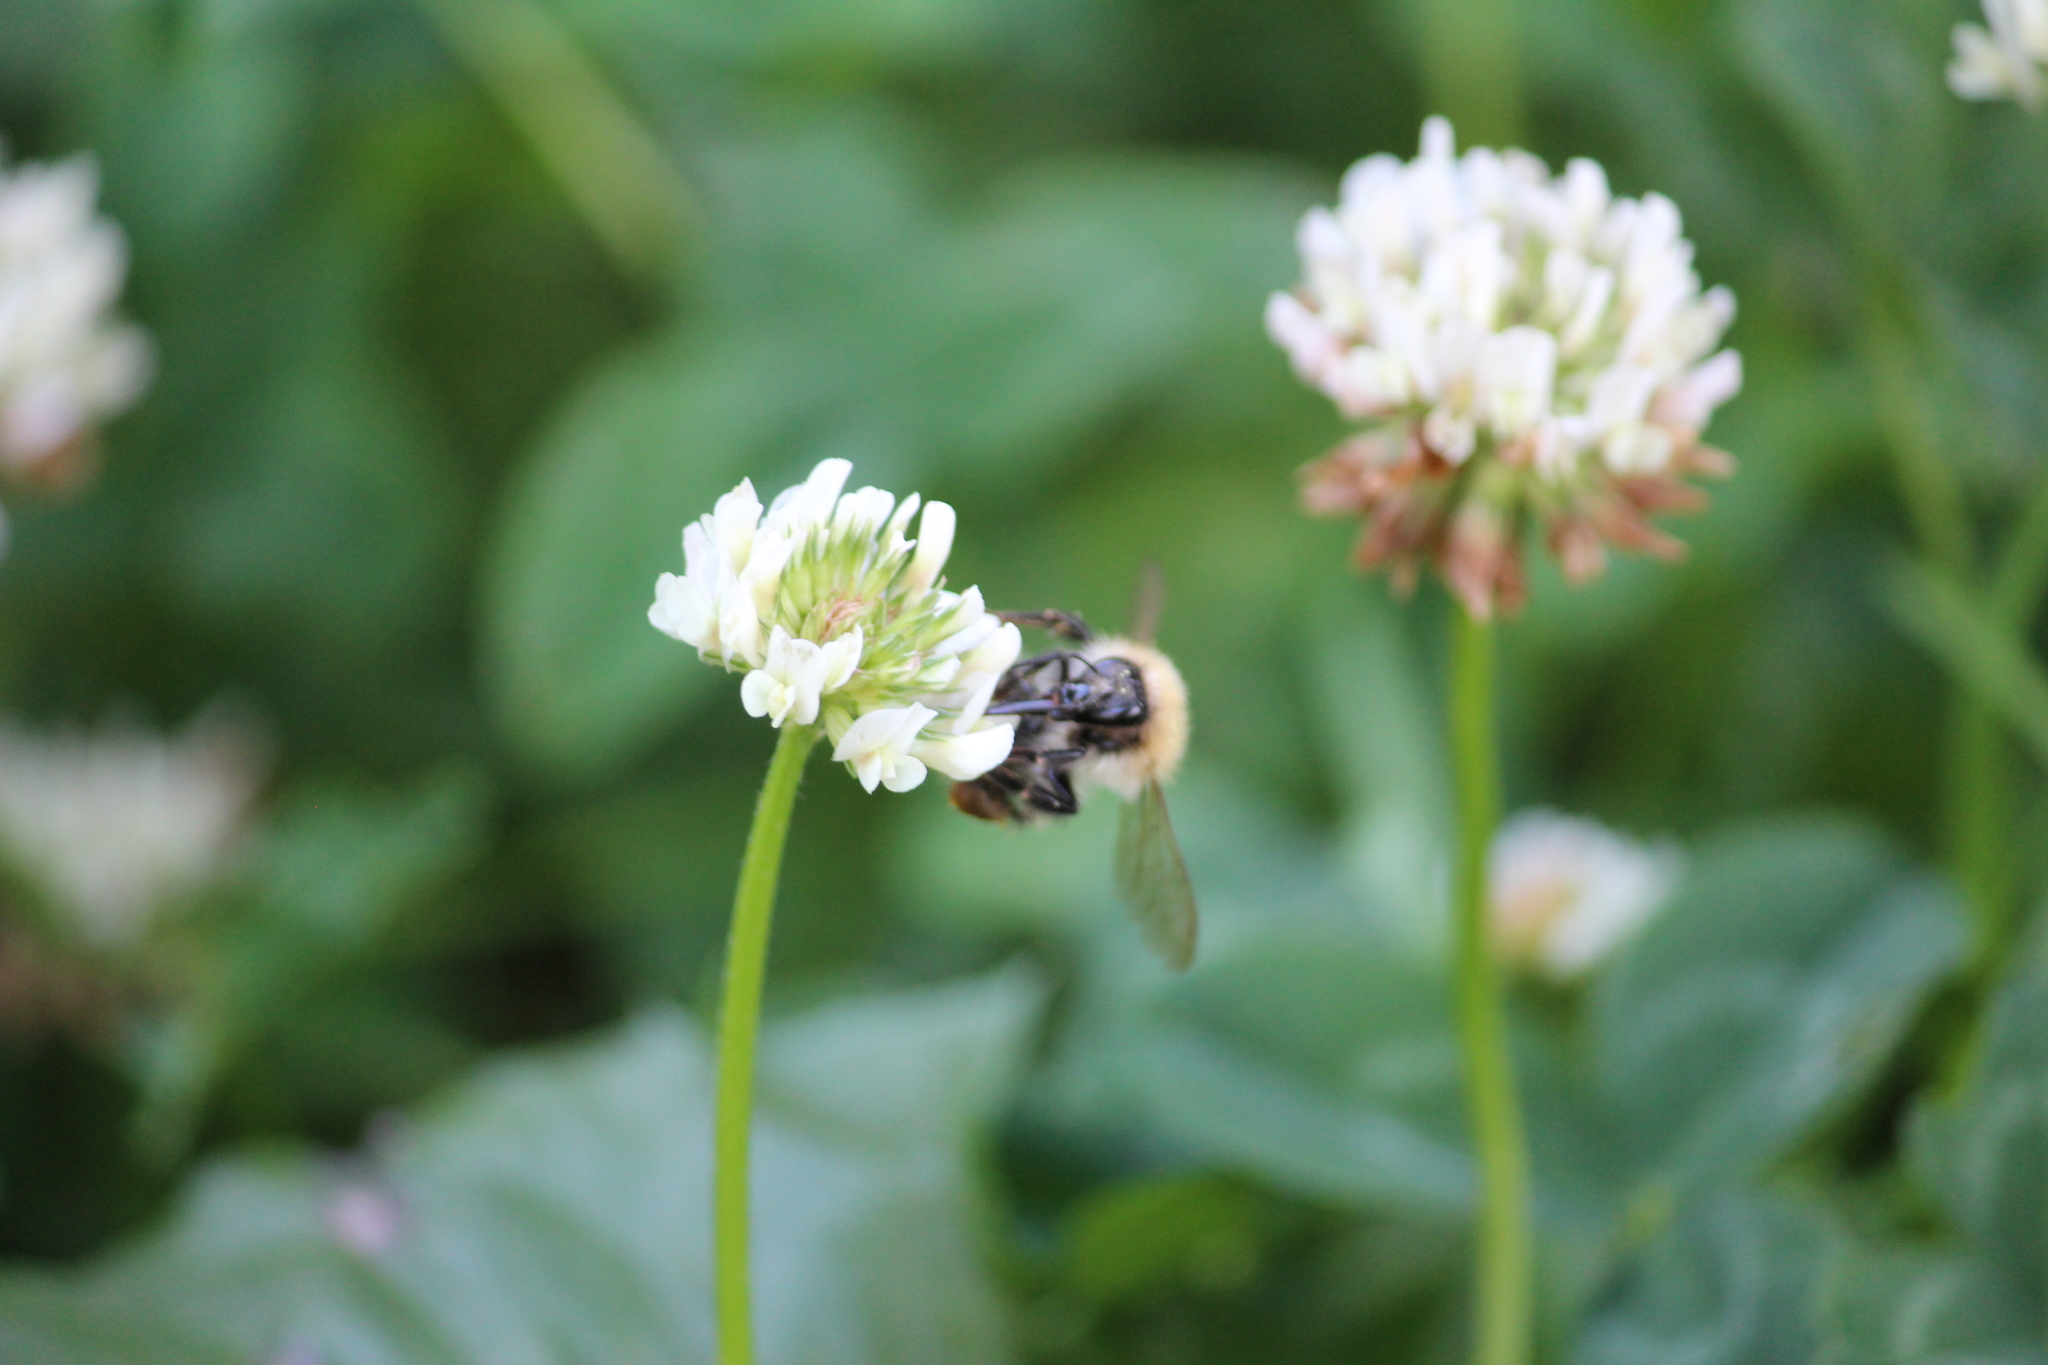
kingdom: Animalia
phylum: Arthropoda
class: Insecta
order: Hymenoptera
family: Apidae
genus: Bombus
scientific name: Bombus pascuorum
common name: Common carder bee
